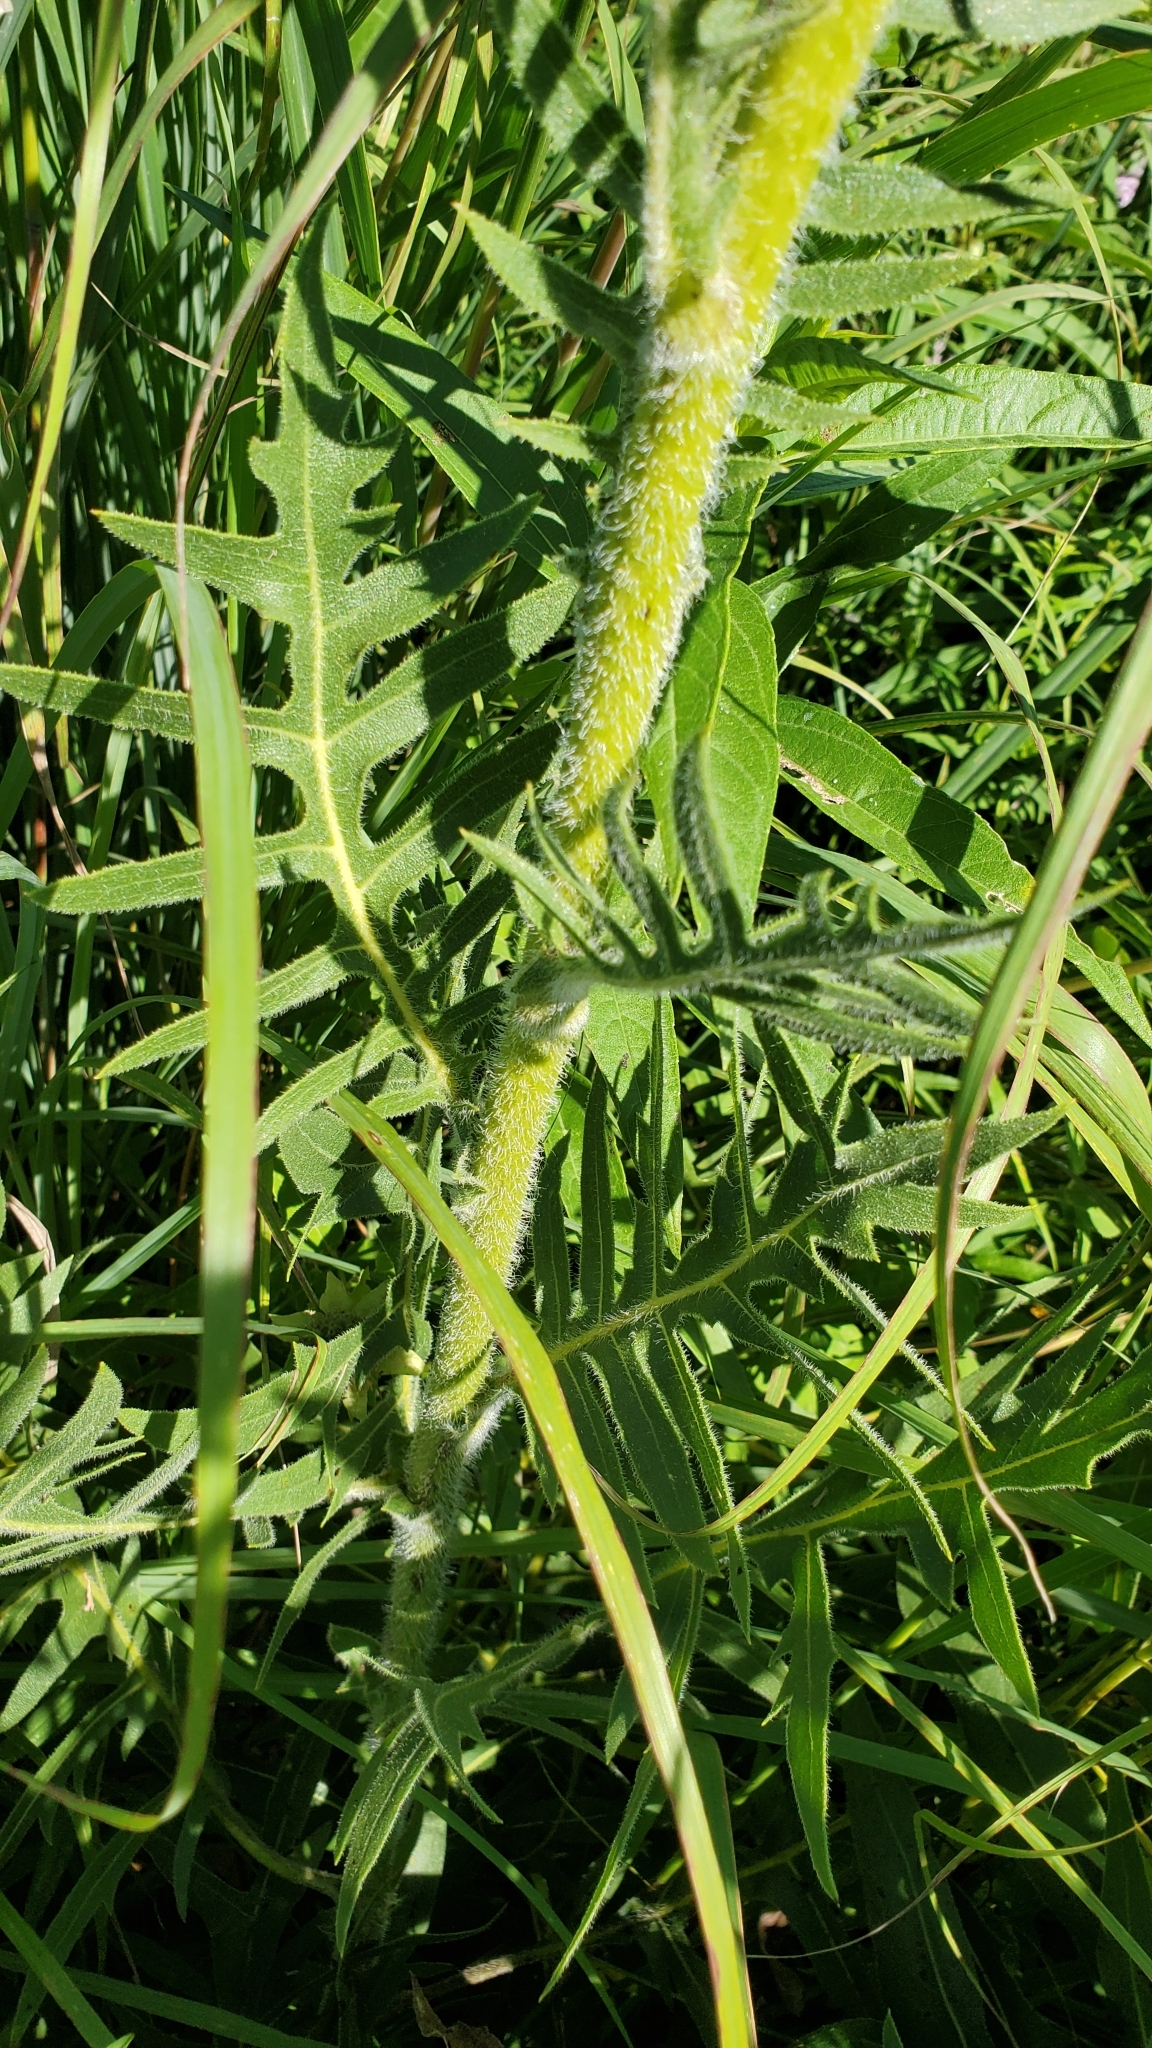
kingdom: Plantae
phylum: Tracheophyta
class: Magnoliopsida
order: Asterales
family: Asteraceae
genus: Silphium
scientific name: Silphium laciniatum
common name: Polarplant
